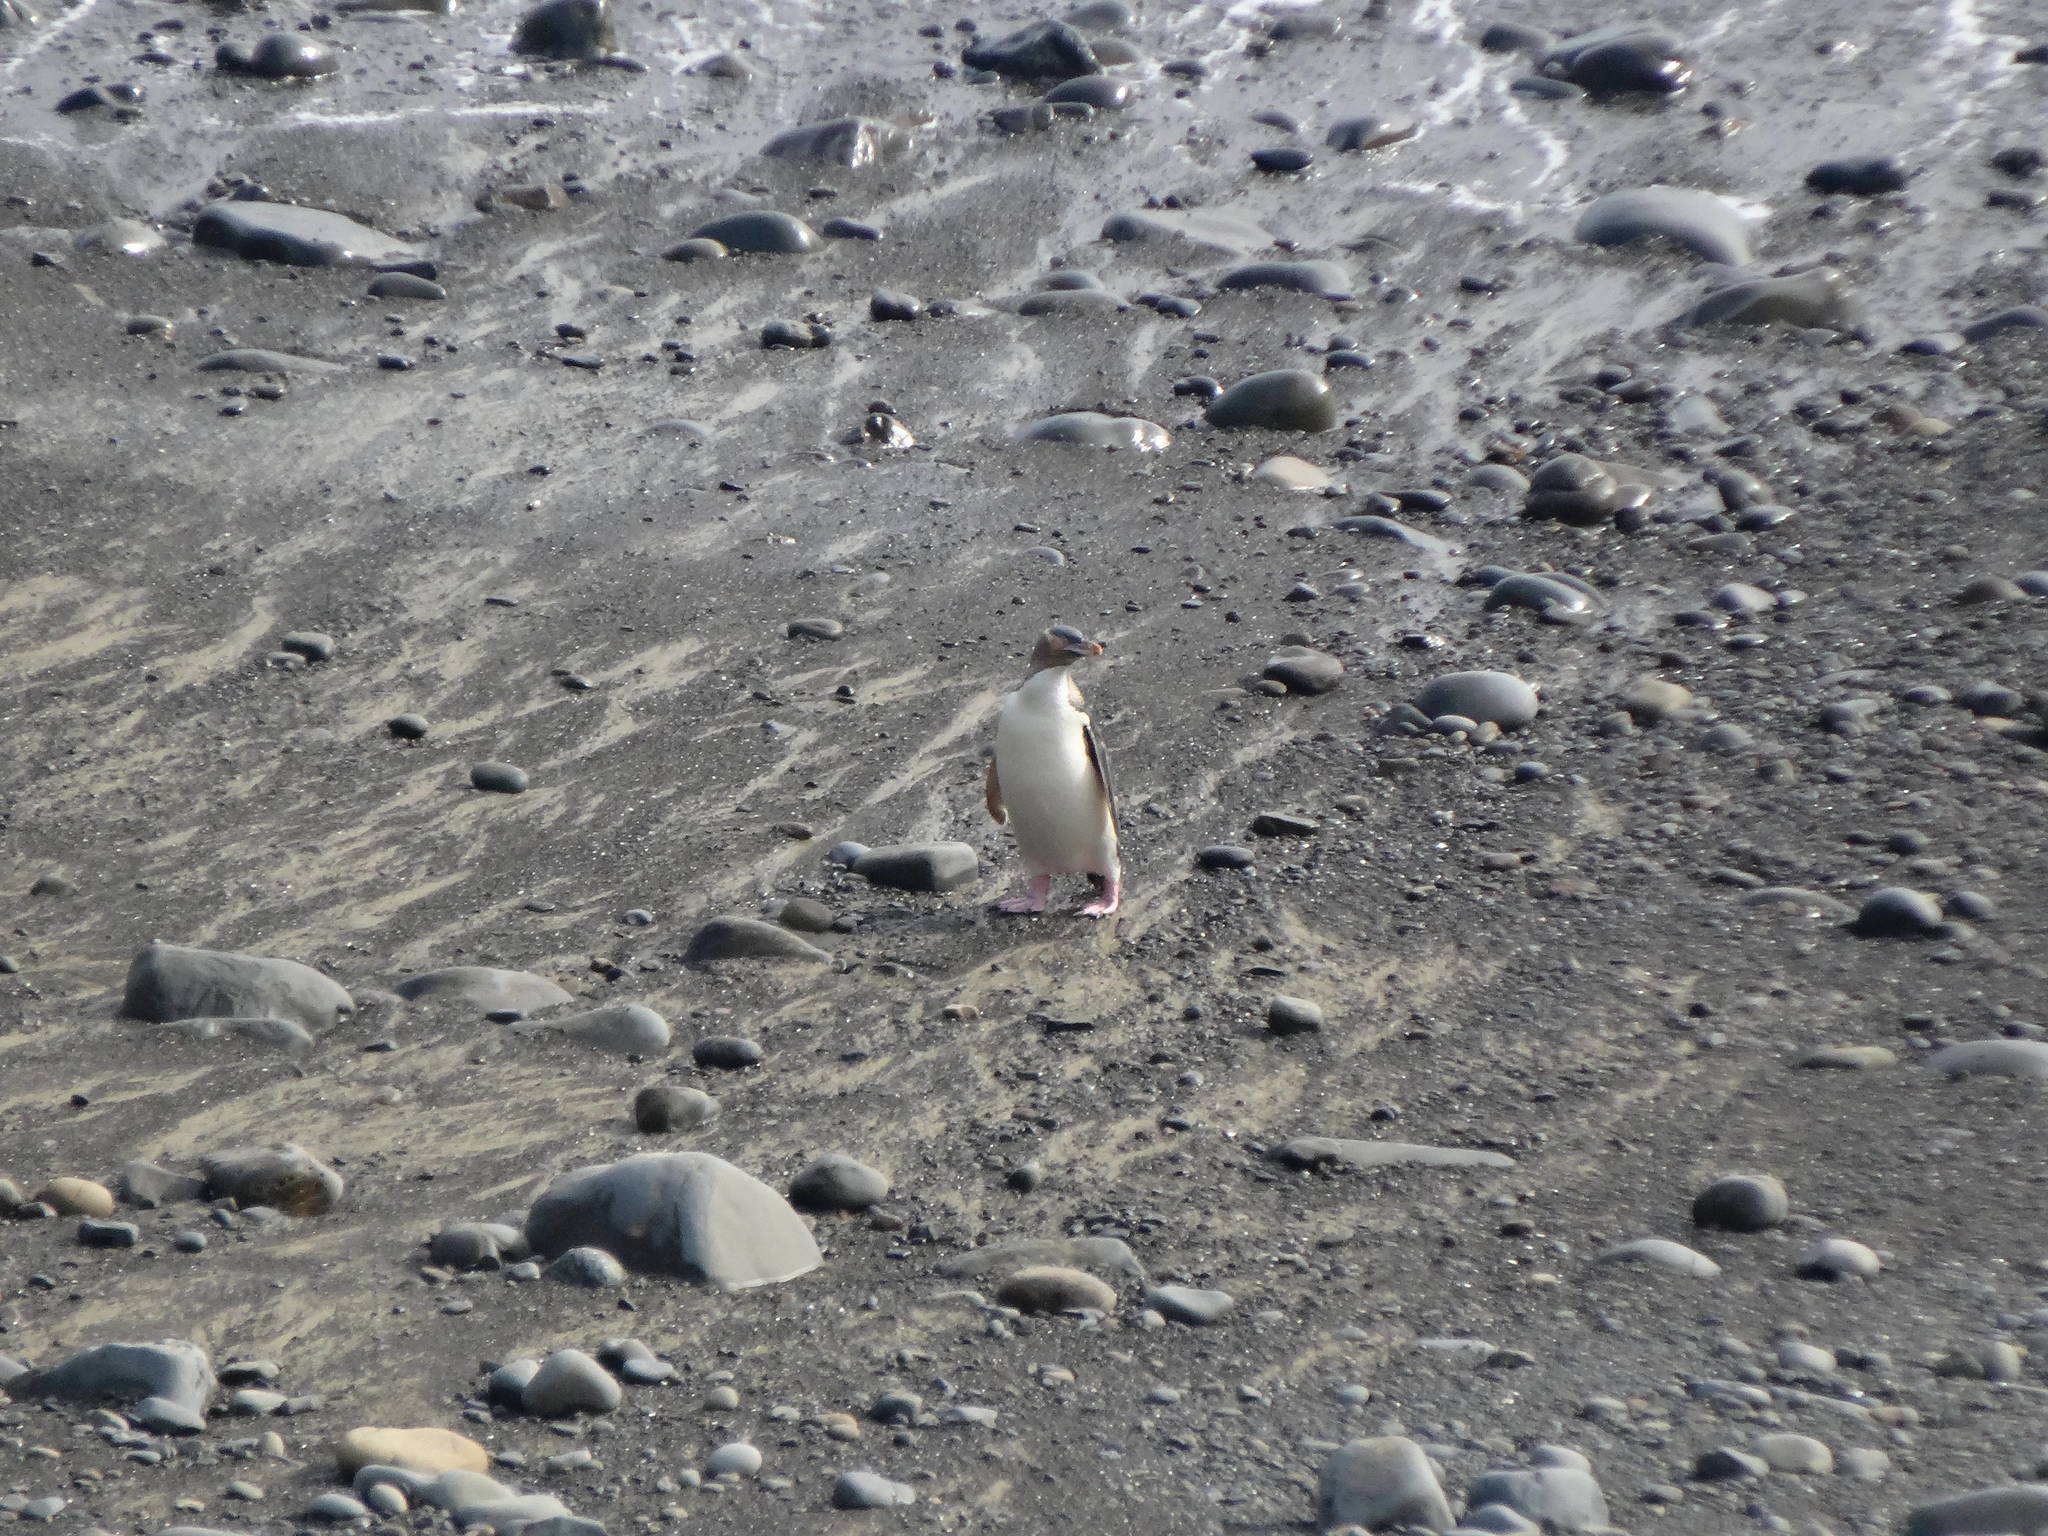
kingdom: Animalia
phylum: Chordata
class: Aves
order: Sphenisciformes
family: Spheniscidae
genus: Megadyptes
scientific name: Megadyptes antipodes
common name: Yellow-eyed penguin
